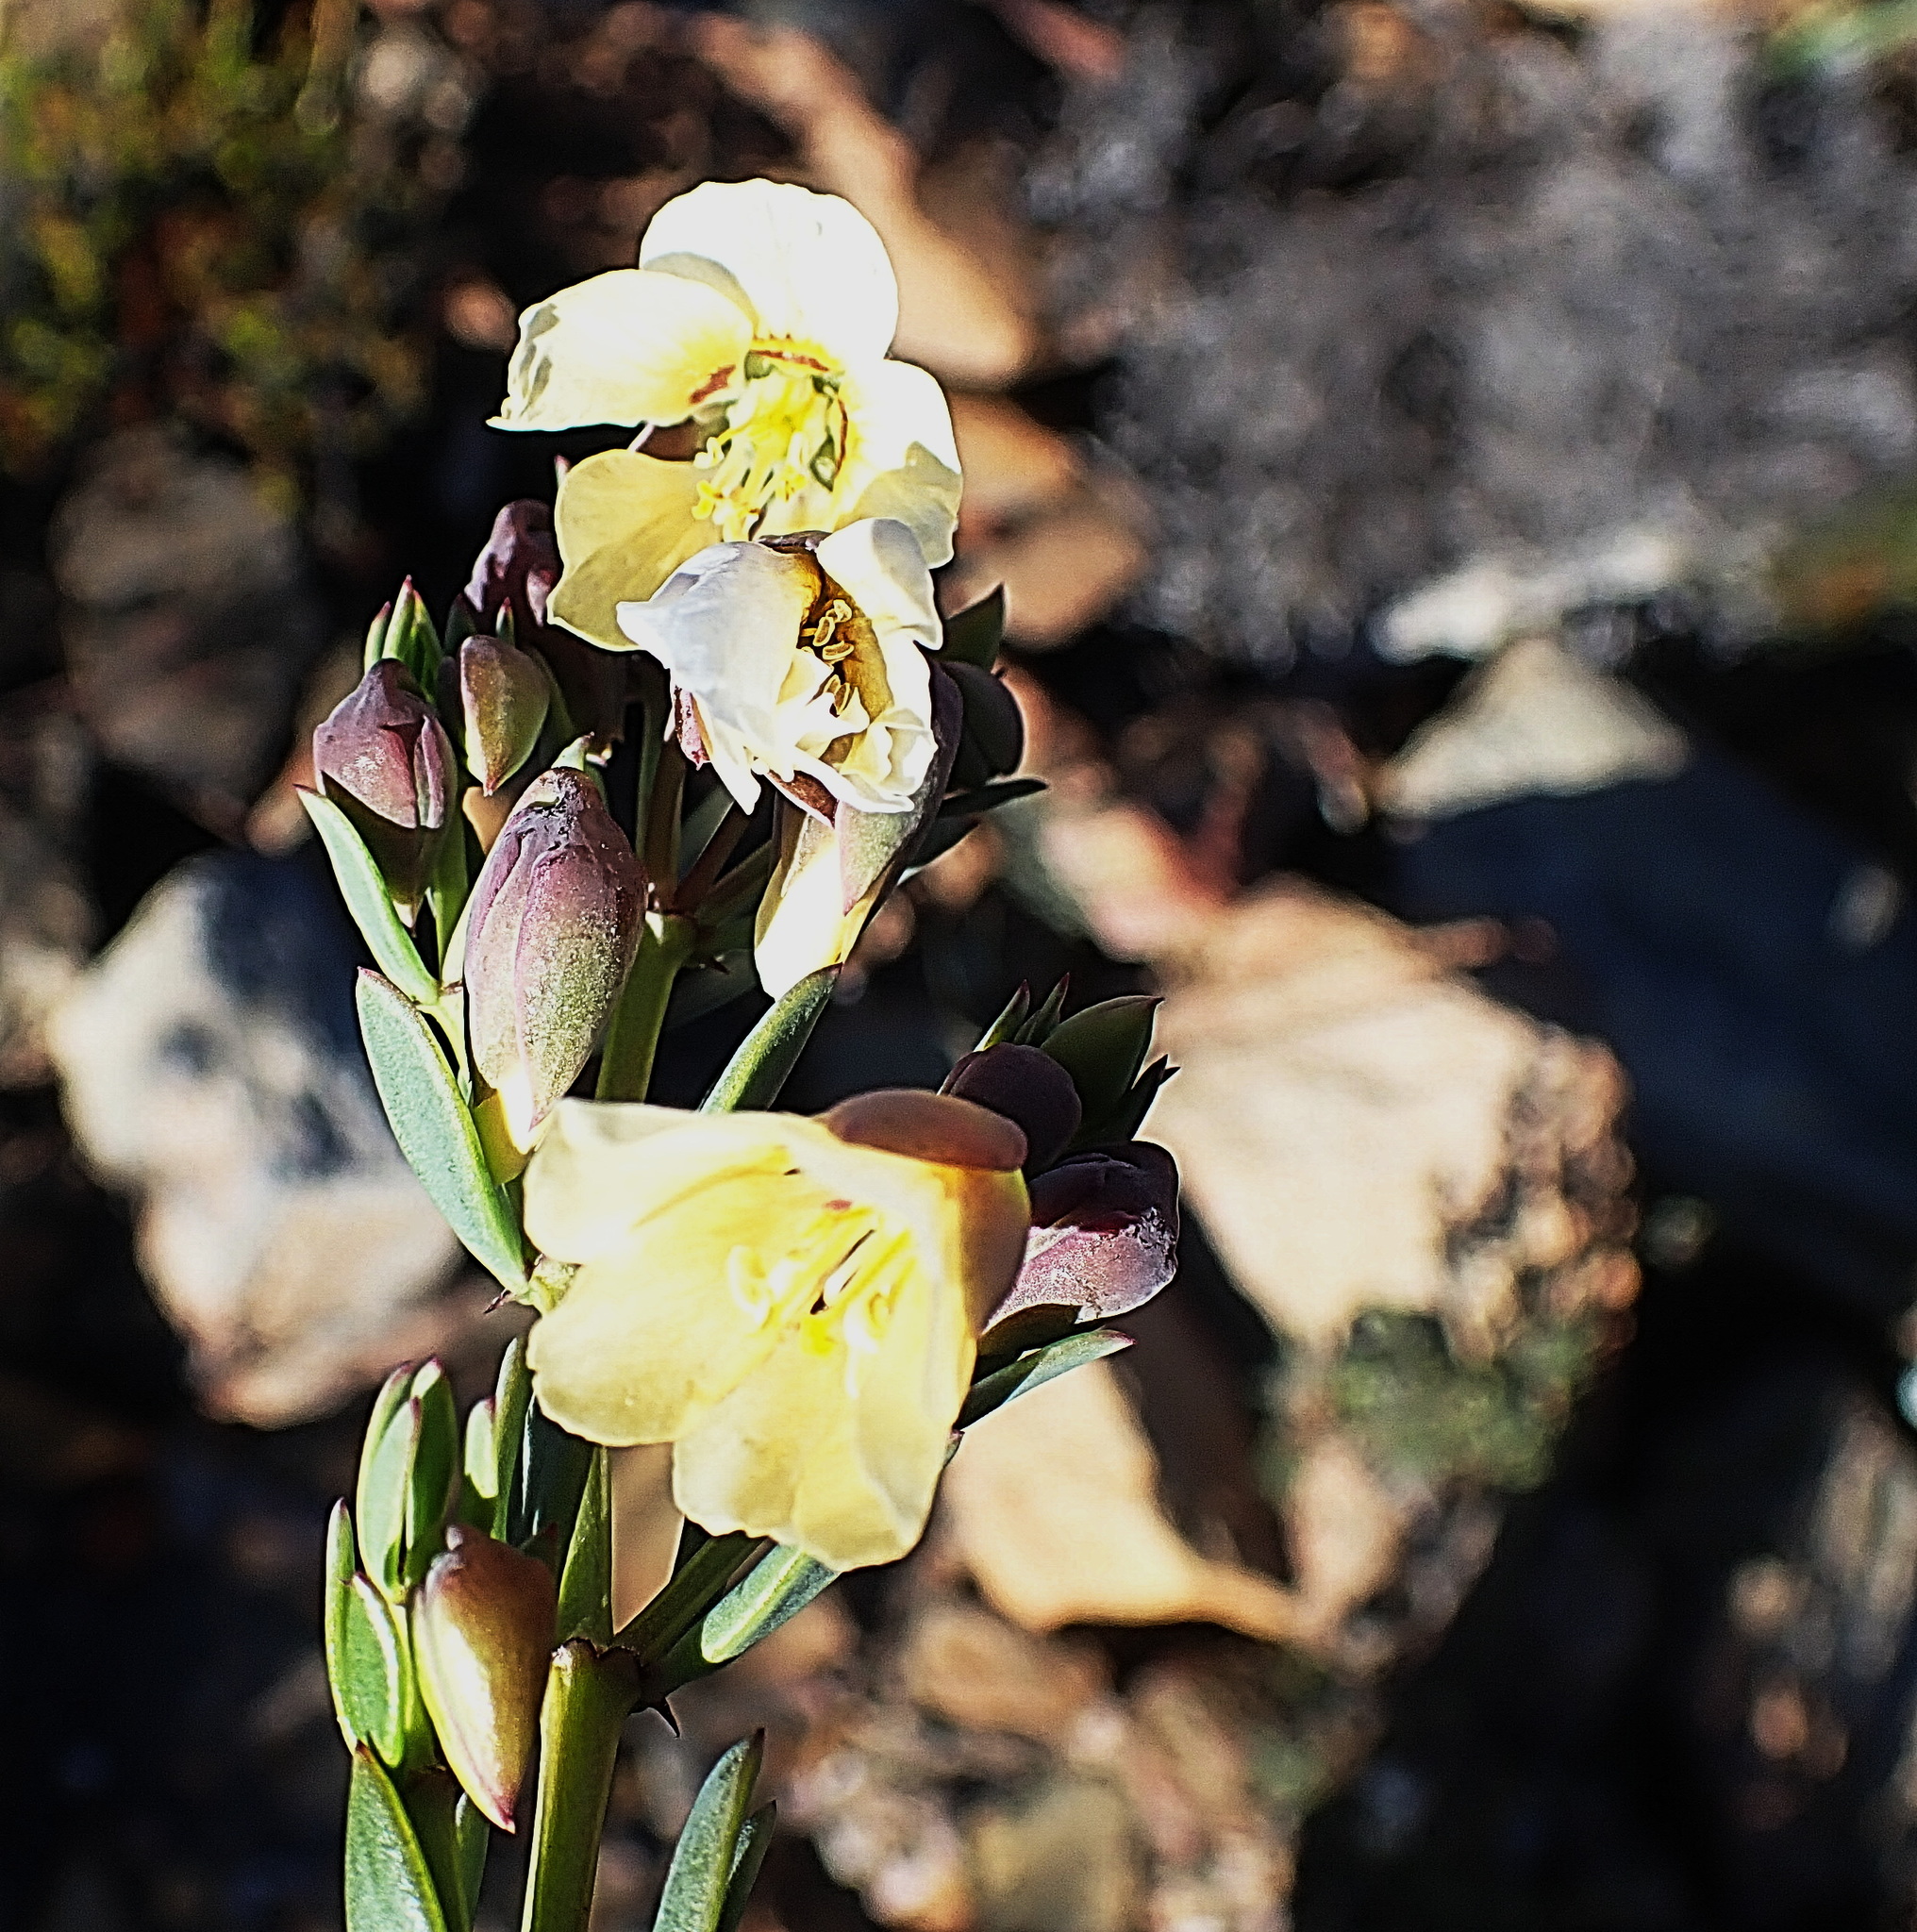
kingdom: Plantae
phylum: Tracheophyta
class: Magnoliopsida
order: Zygophyllales
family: Zygophyllaceae
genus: Roepera
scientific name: Roepera fulva
